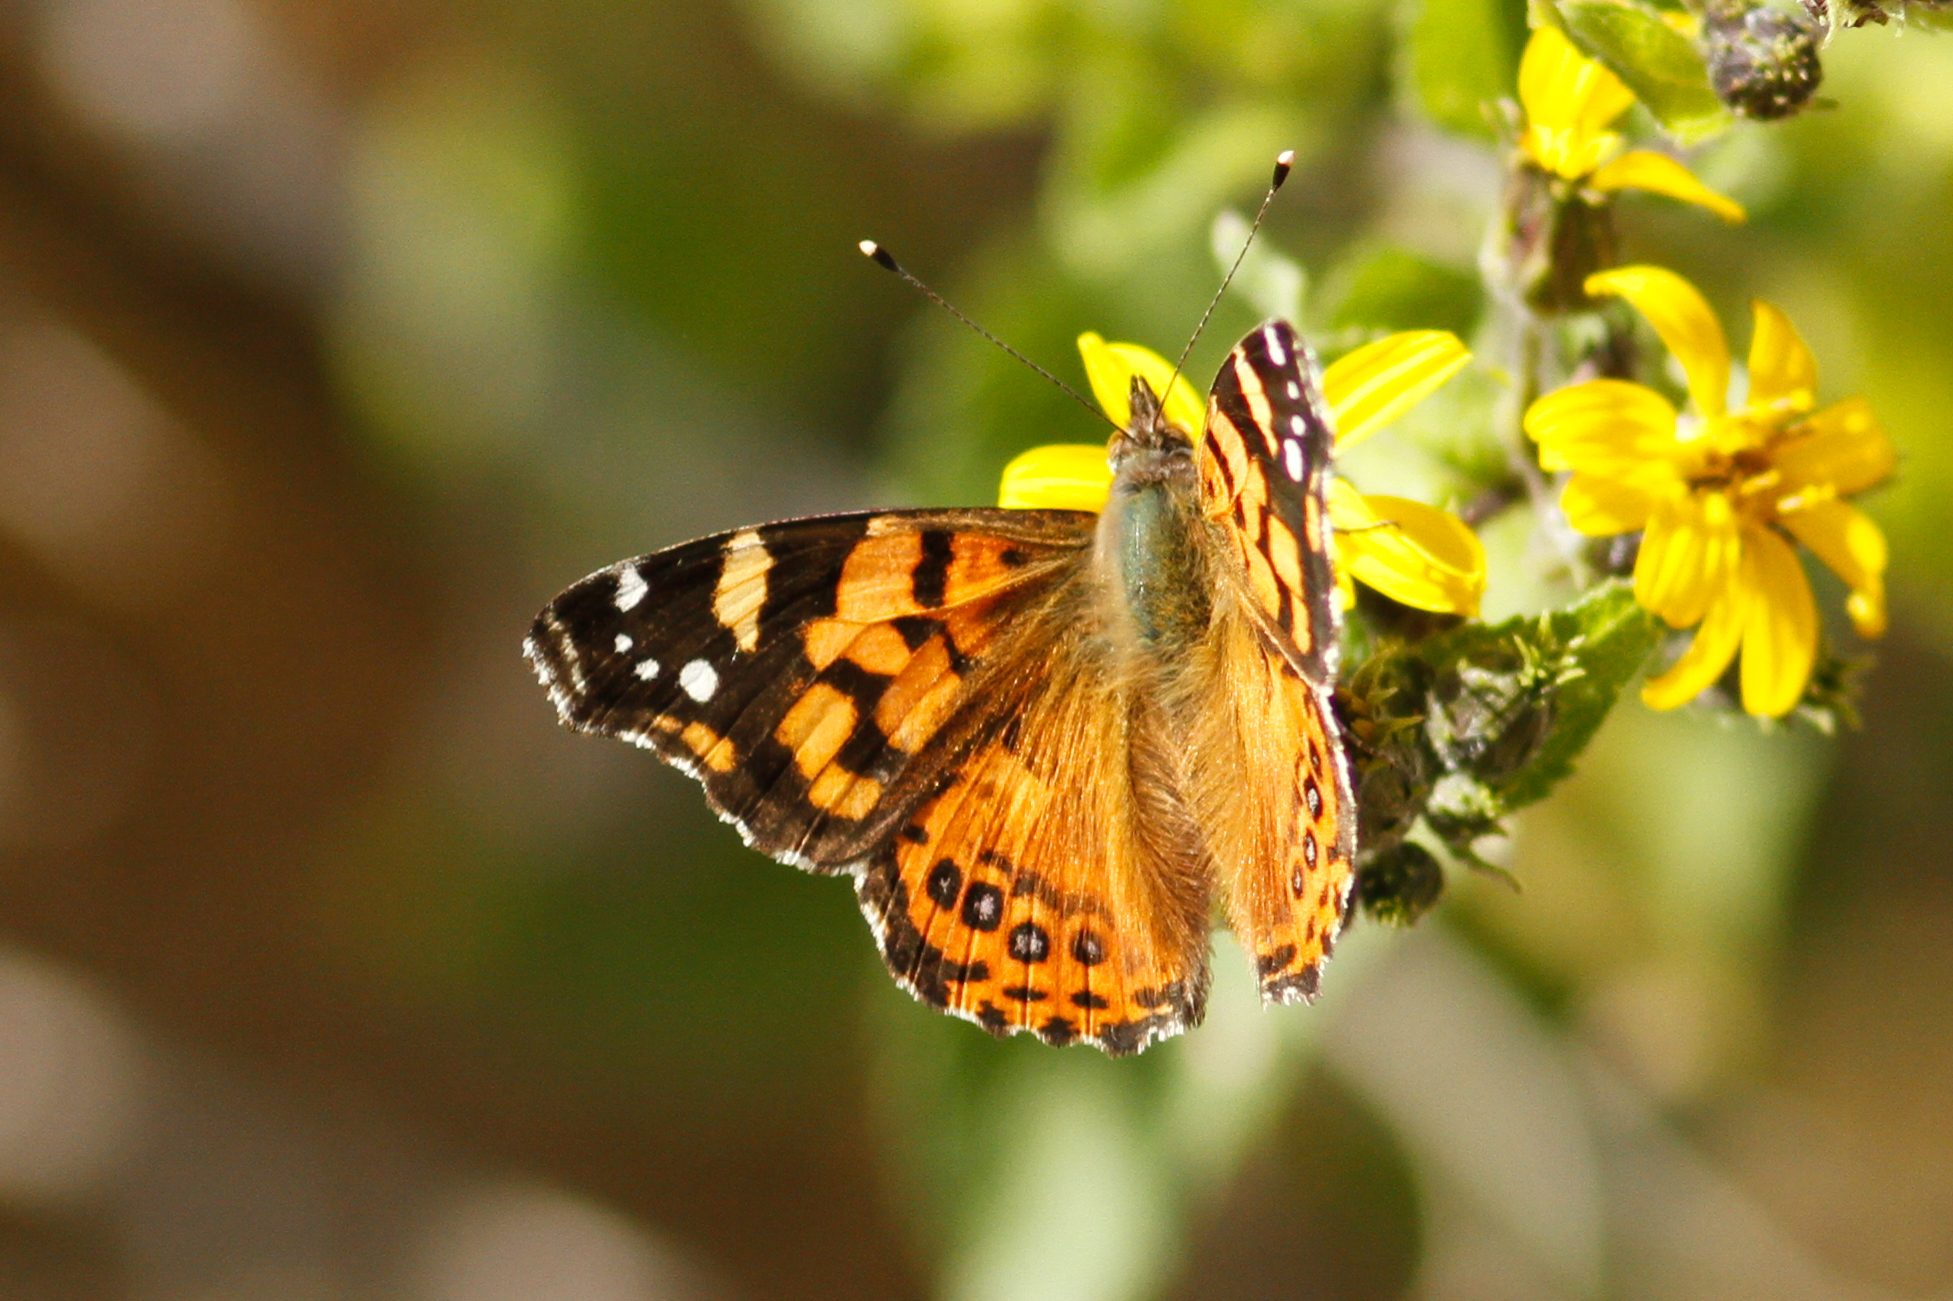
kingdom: Animalia
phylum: Arthropoda
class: Insecta
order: Lepidoptera
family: Nymphalidae
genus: Vanessa
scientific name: Vanessa carye
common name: Subtropical lady
